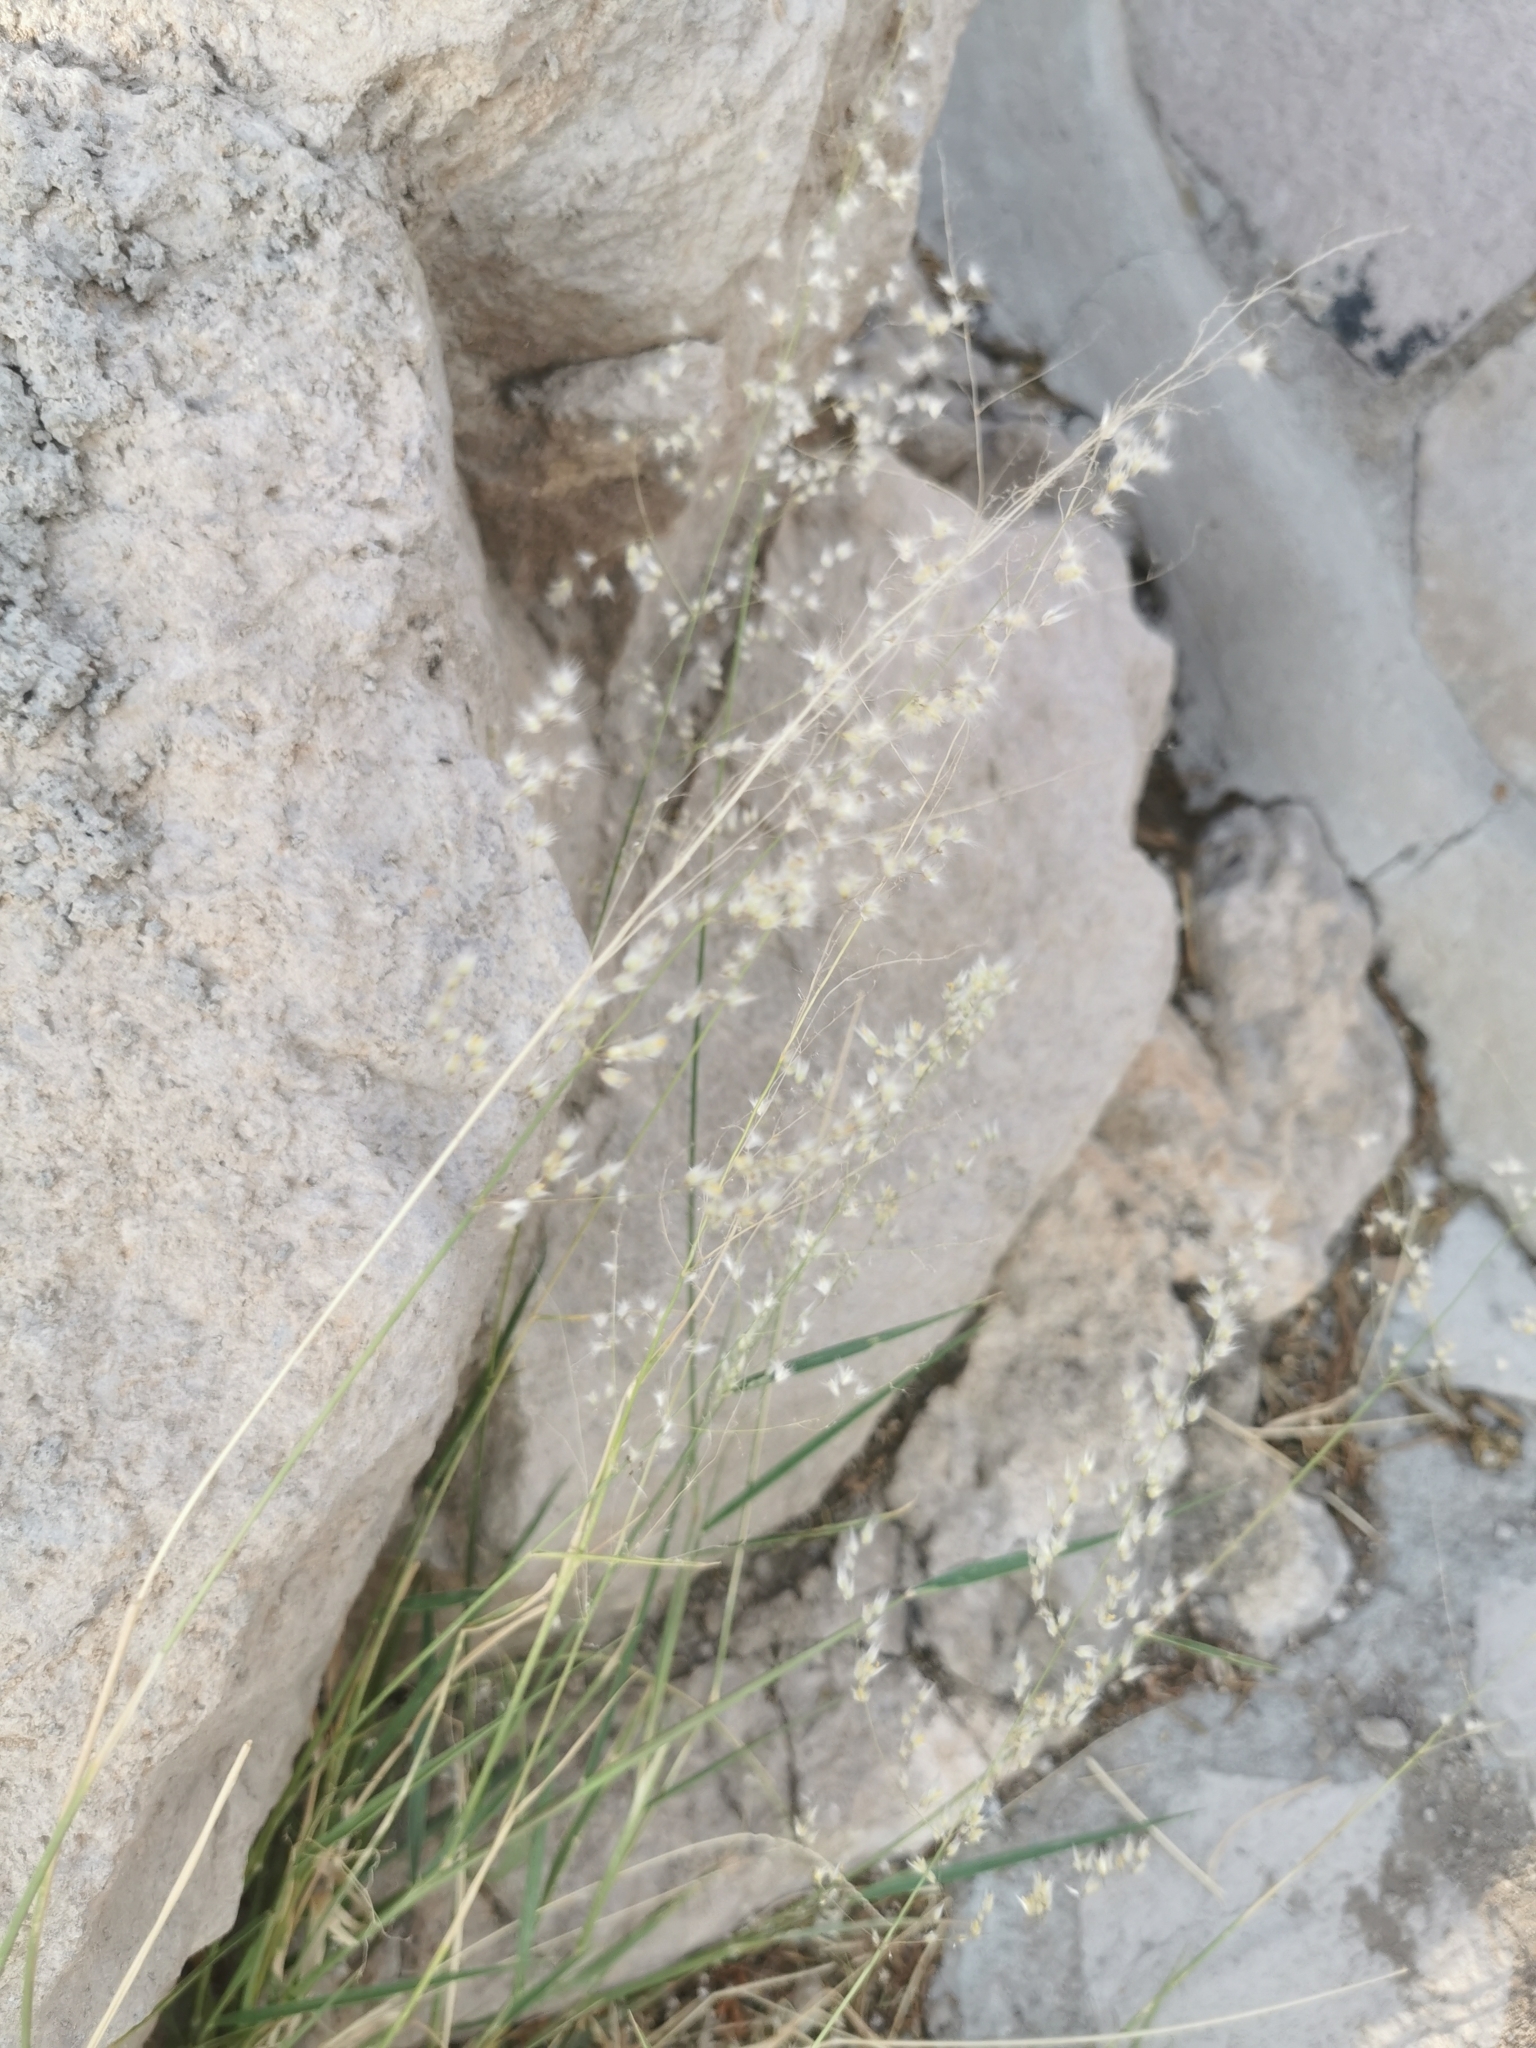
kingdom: Plantae
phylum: Tracheophyta
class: Liliopsida
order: Poales
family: Poaceae
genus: Melinis
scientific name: Melinis repens
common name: Rose natal grass
